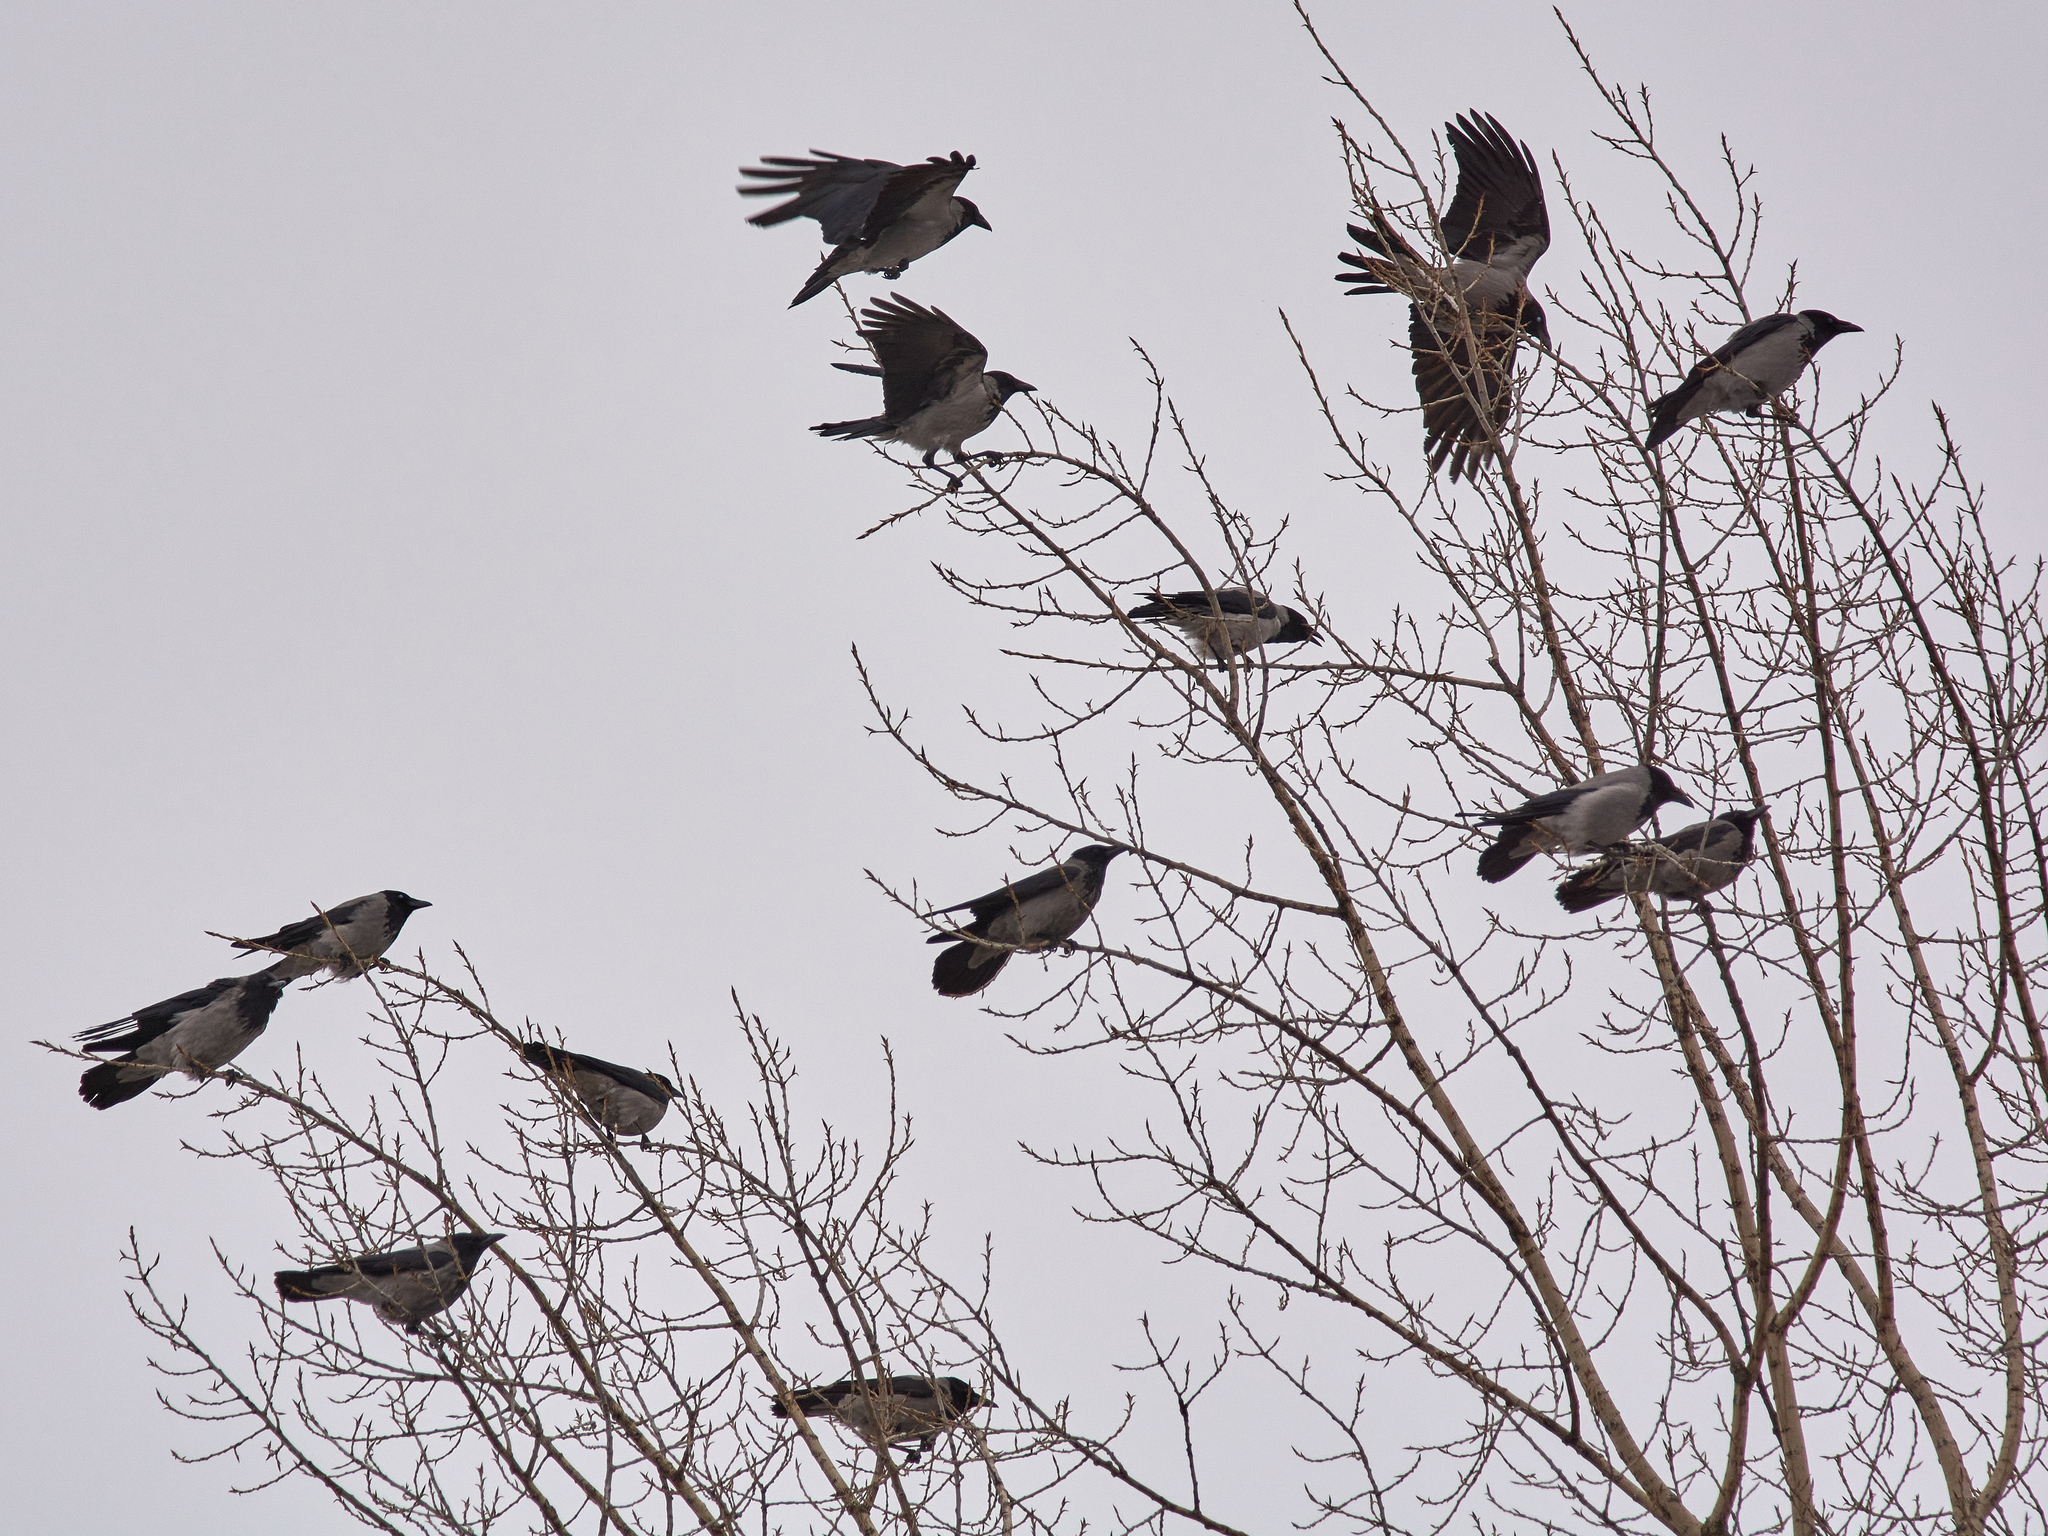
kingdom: Animalia
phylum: Chordata
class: Aves
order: Passeriformes
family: Corvidae
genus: Corvus
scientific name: Corvus cornix
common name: Hooded crow
